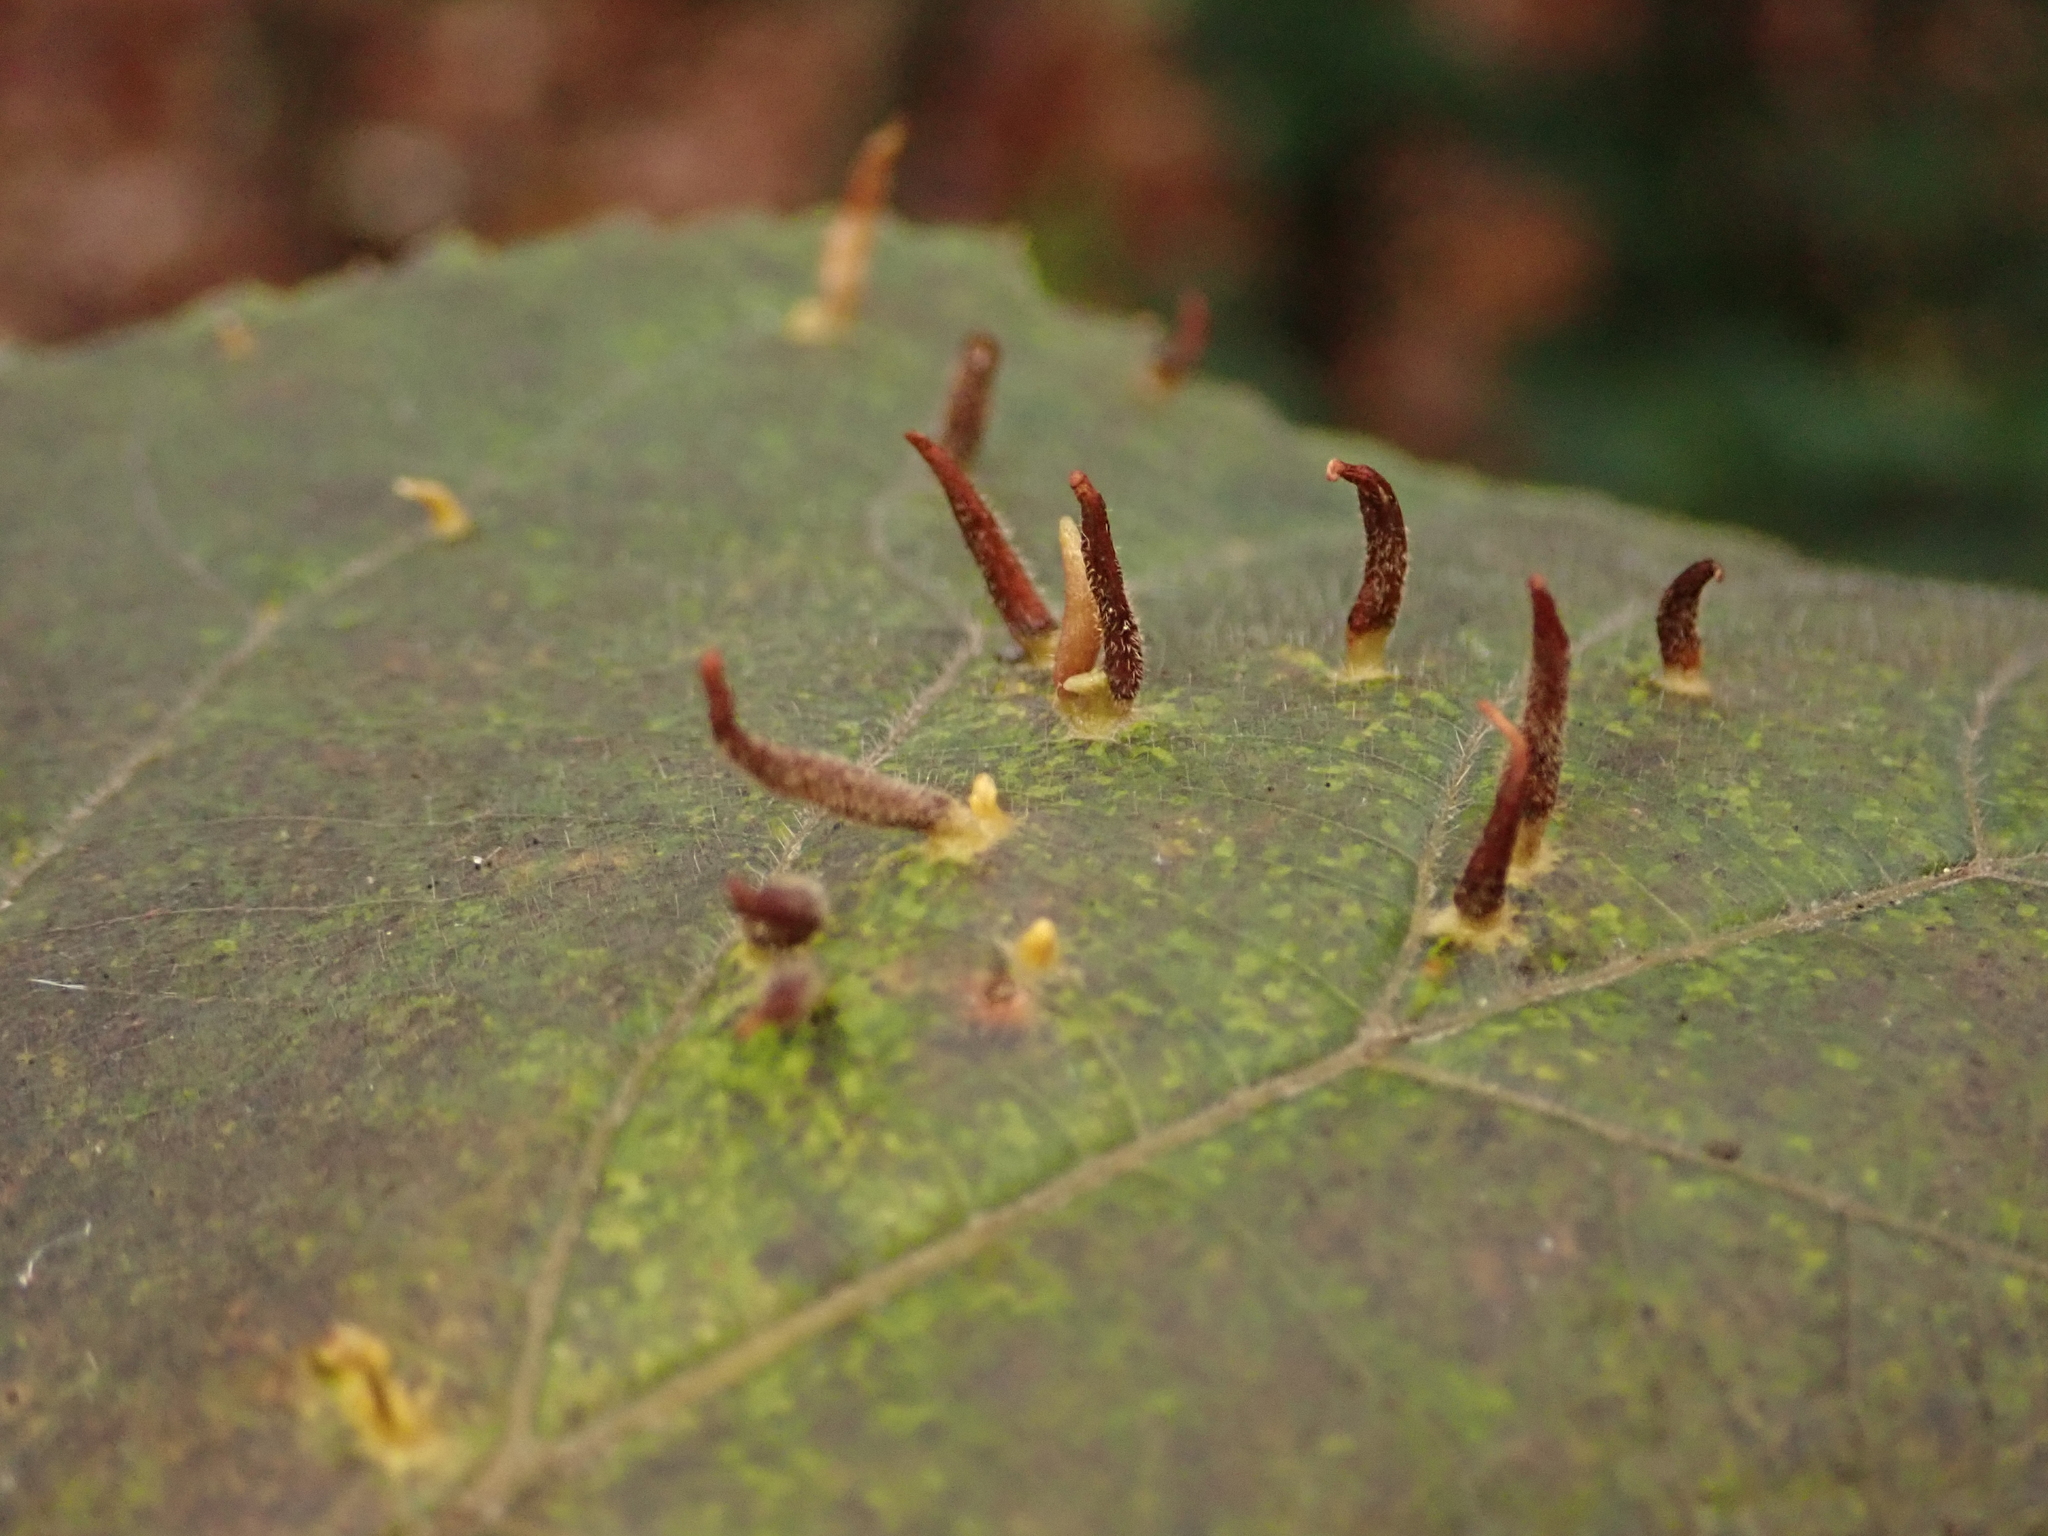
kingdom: Animalia
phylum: Arthropoda
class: Arachnida
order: Trombidiformes
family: Eriophyidae
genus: Eriophyes
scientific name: Eriophyes tiliae
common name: Red nail gall mite
